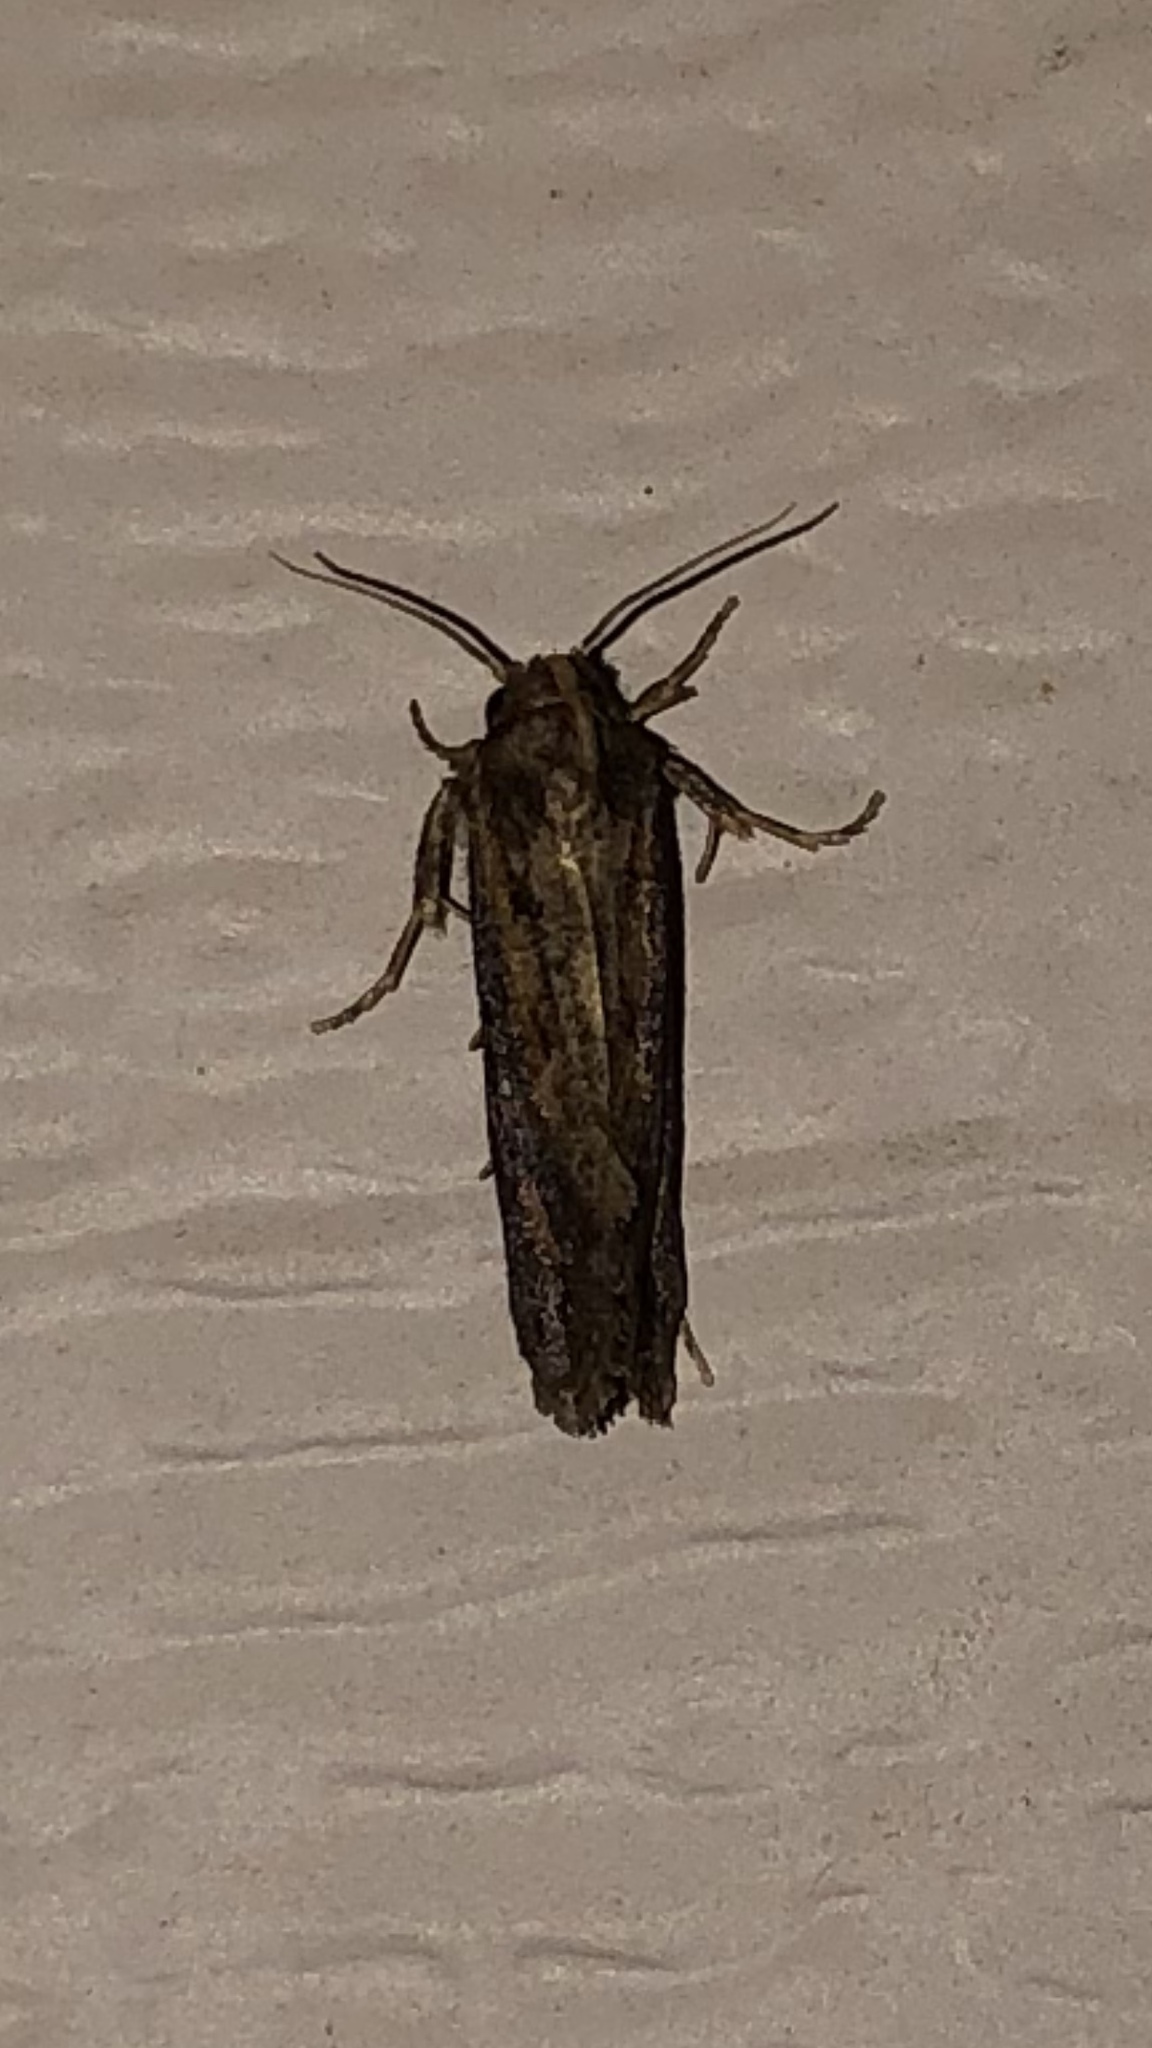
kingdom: Animalia
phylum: Arthropoda
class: Insecta
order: Lepidoptera
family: Tineidae
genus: Acrolophus
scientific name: Acrolophus popeanella
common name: Clemens' grass tubeworm moth
